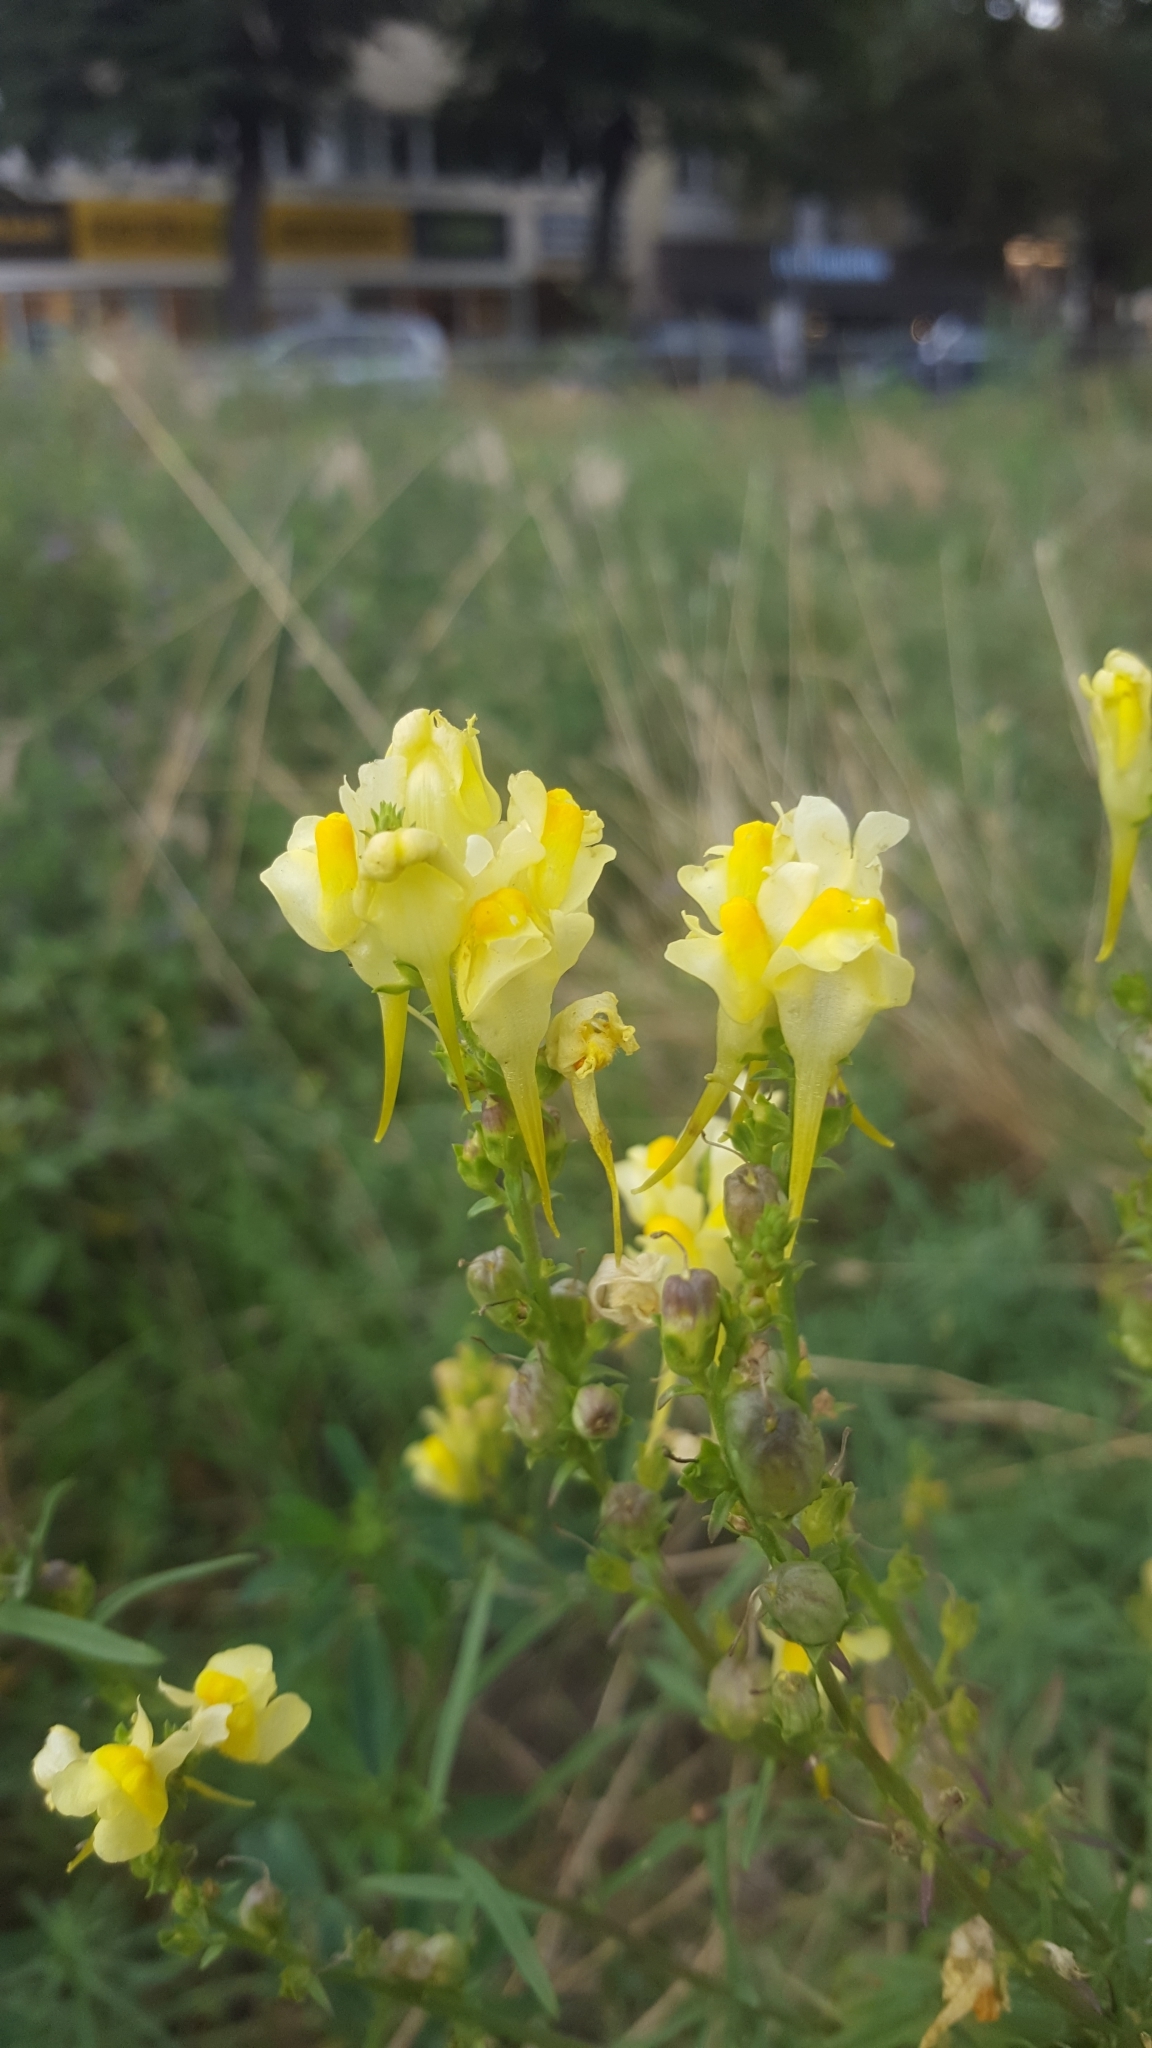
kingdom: Plantae
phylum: Tracheophyta
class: Magnoliopsida
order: Lamiales
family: Plantaginaceae
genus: Linaria
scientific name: Linaria vulgaris
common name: Butter and eggs
